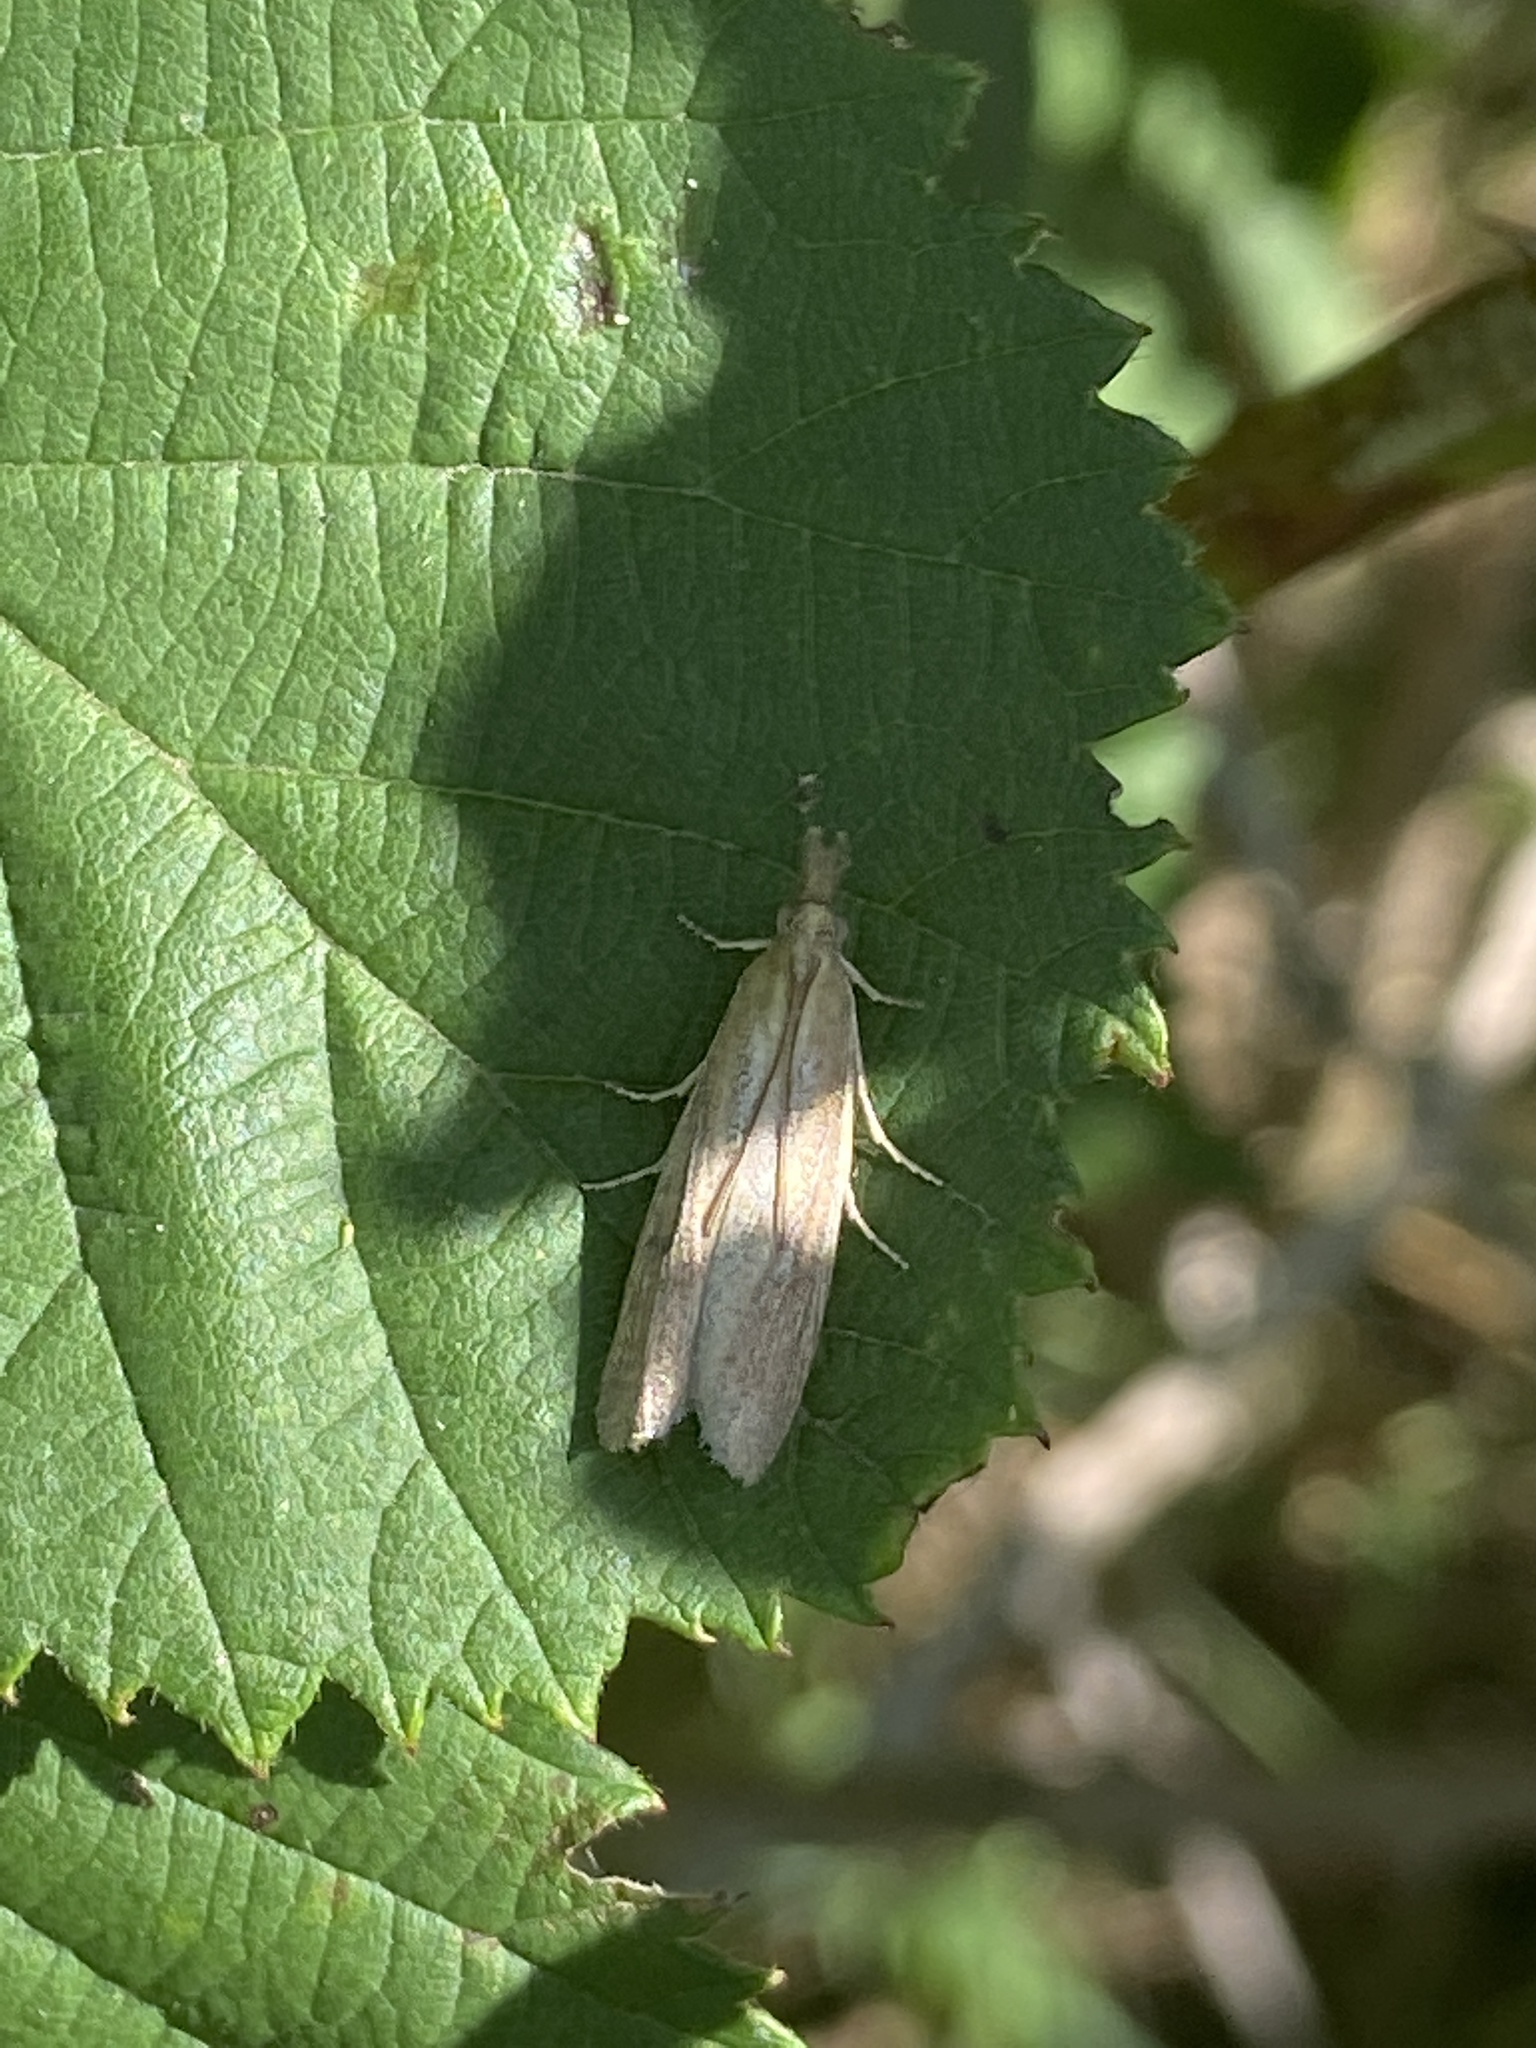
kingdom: Animalia
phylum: Arthropoda
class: Insecta
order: Lepidoptera
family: Pyralidae
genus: Anerastia
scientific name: Anerastia lotella
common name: Sandhill knot-horn
